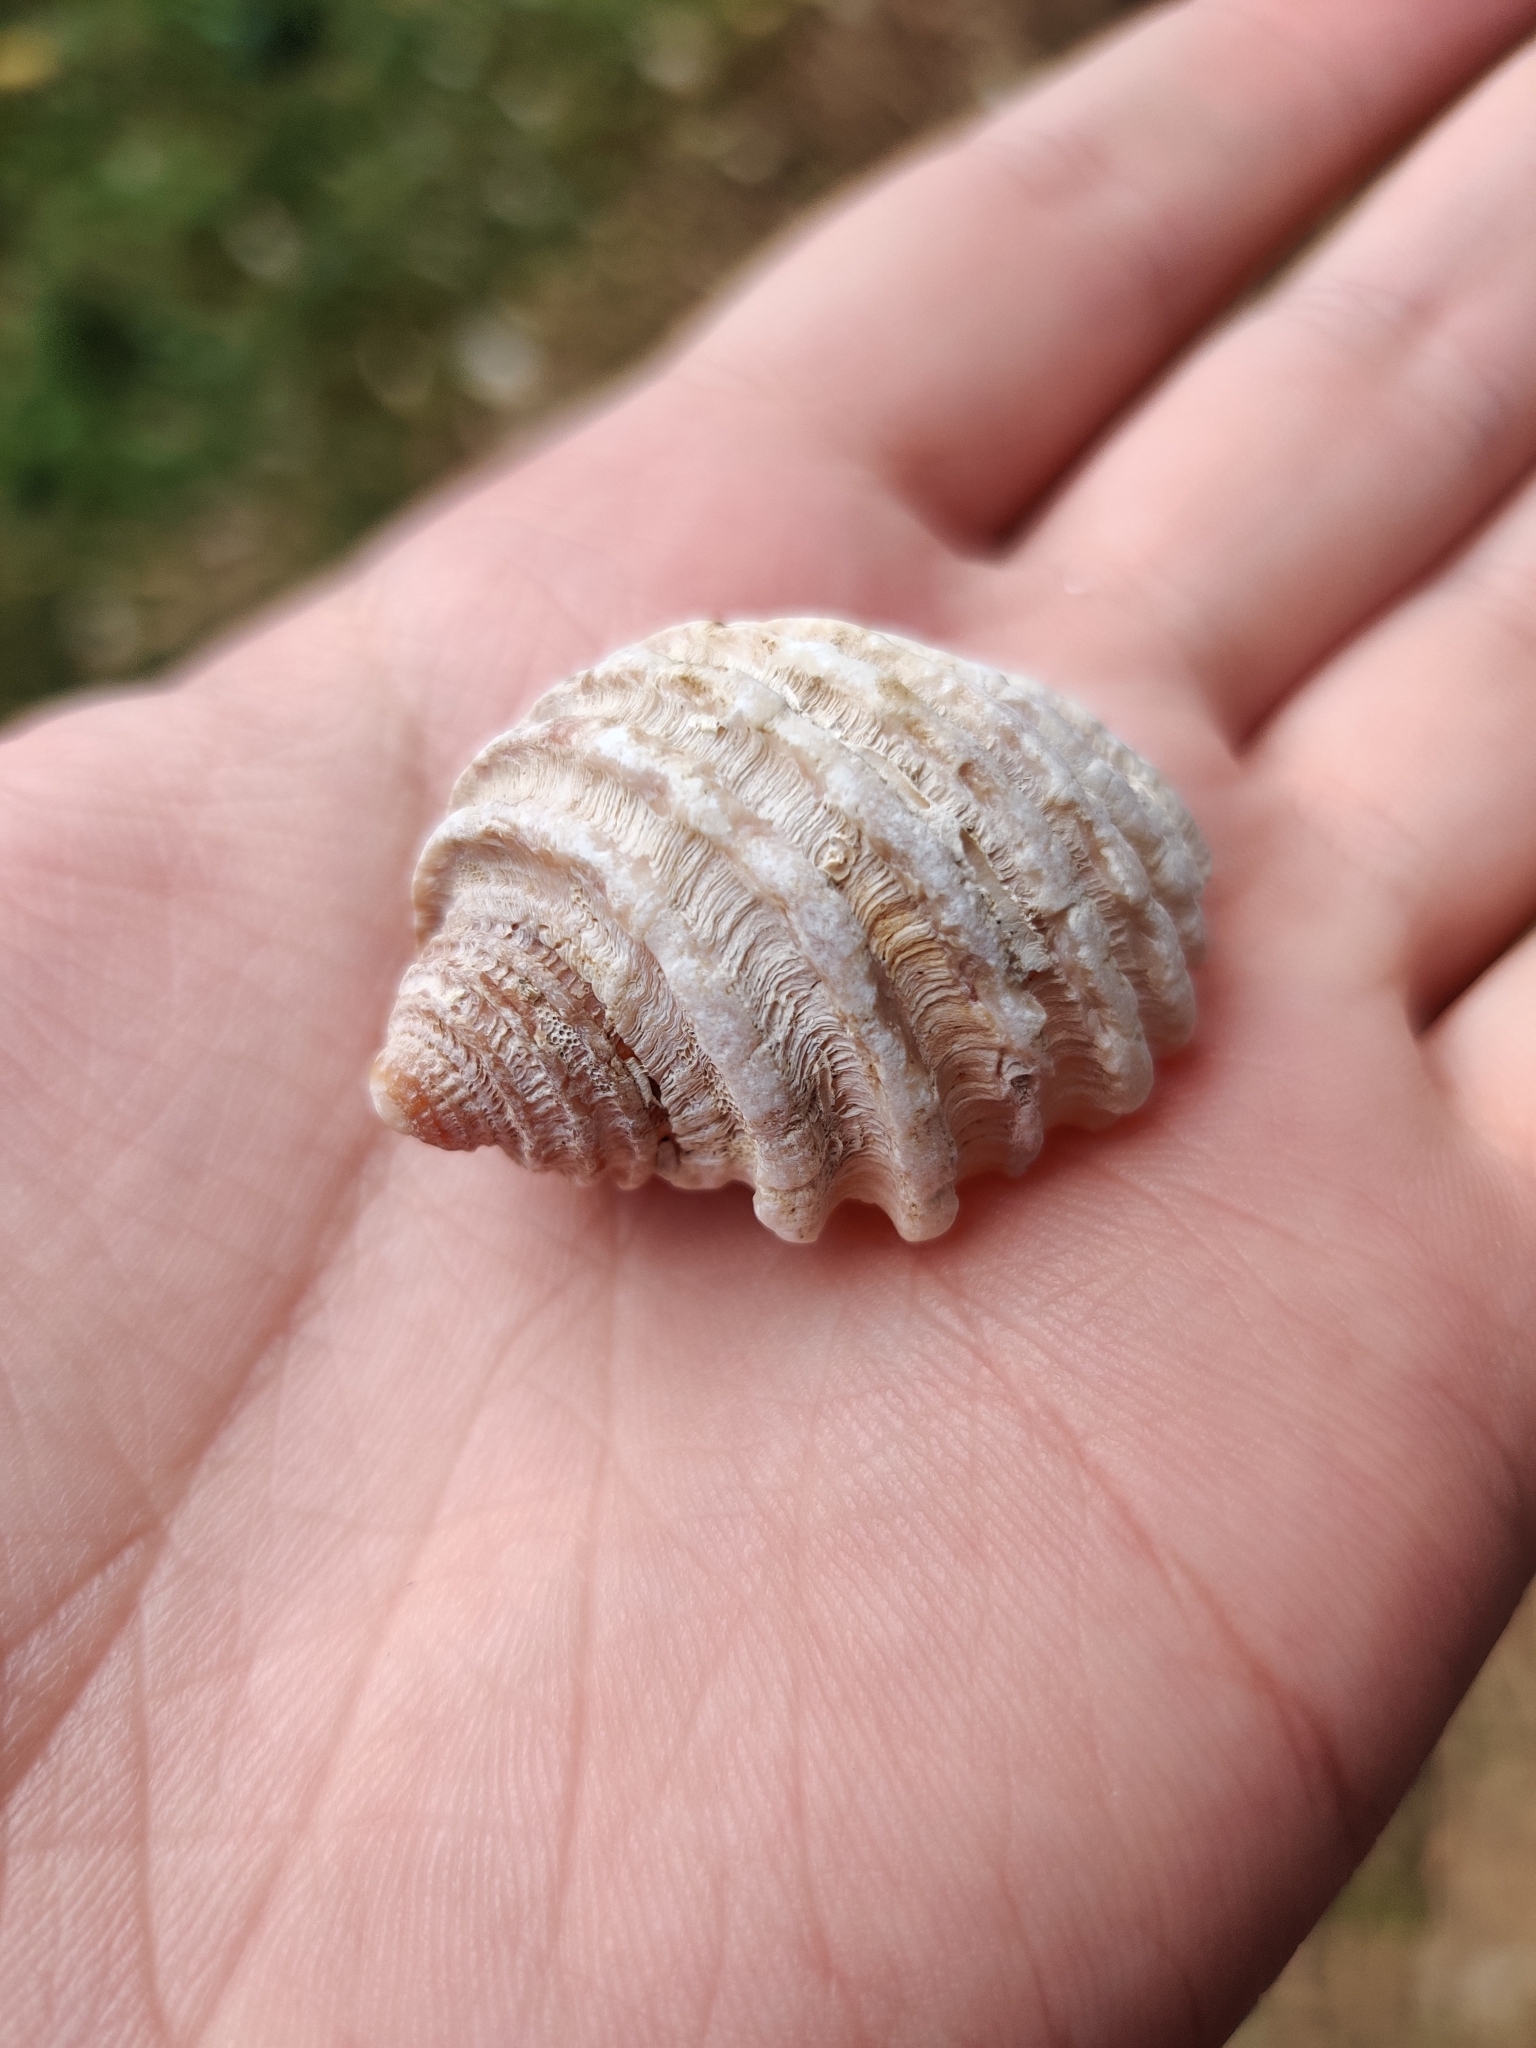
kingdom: Animalia
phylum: Mollusca
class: Gastropoda
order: Neogastropoda
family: Muricidae
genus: Dicathais
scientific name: Dicathais orbita
